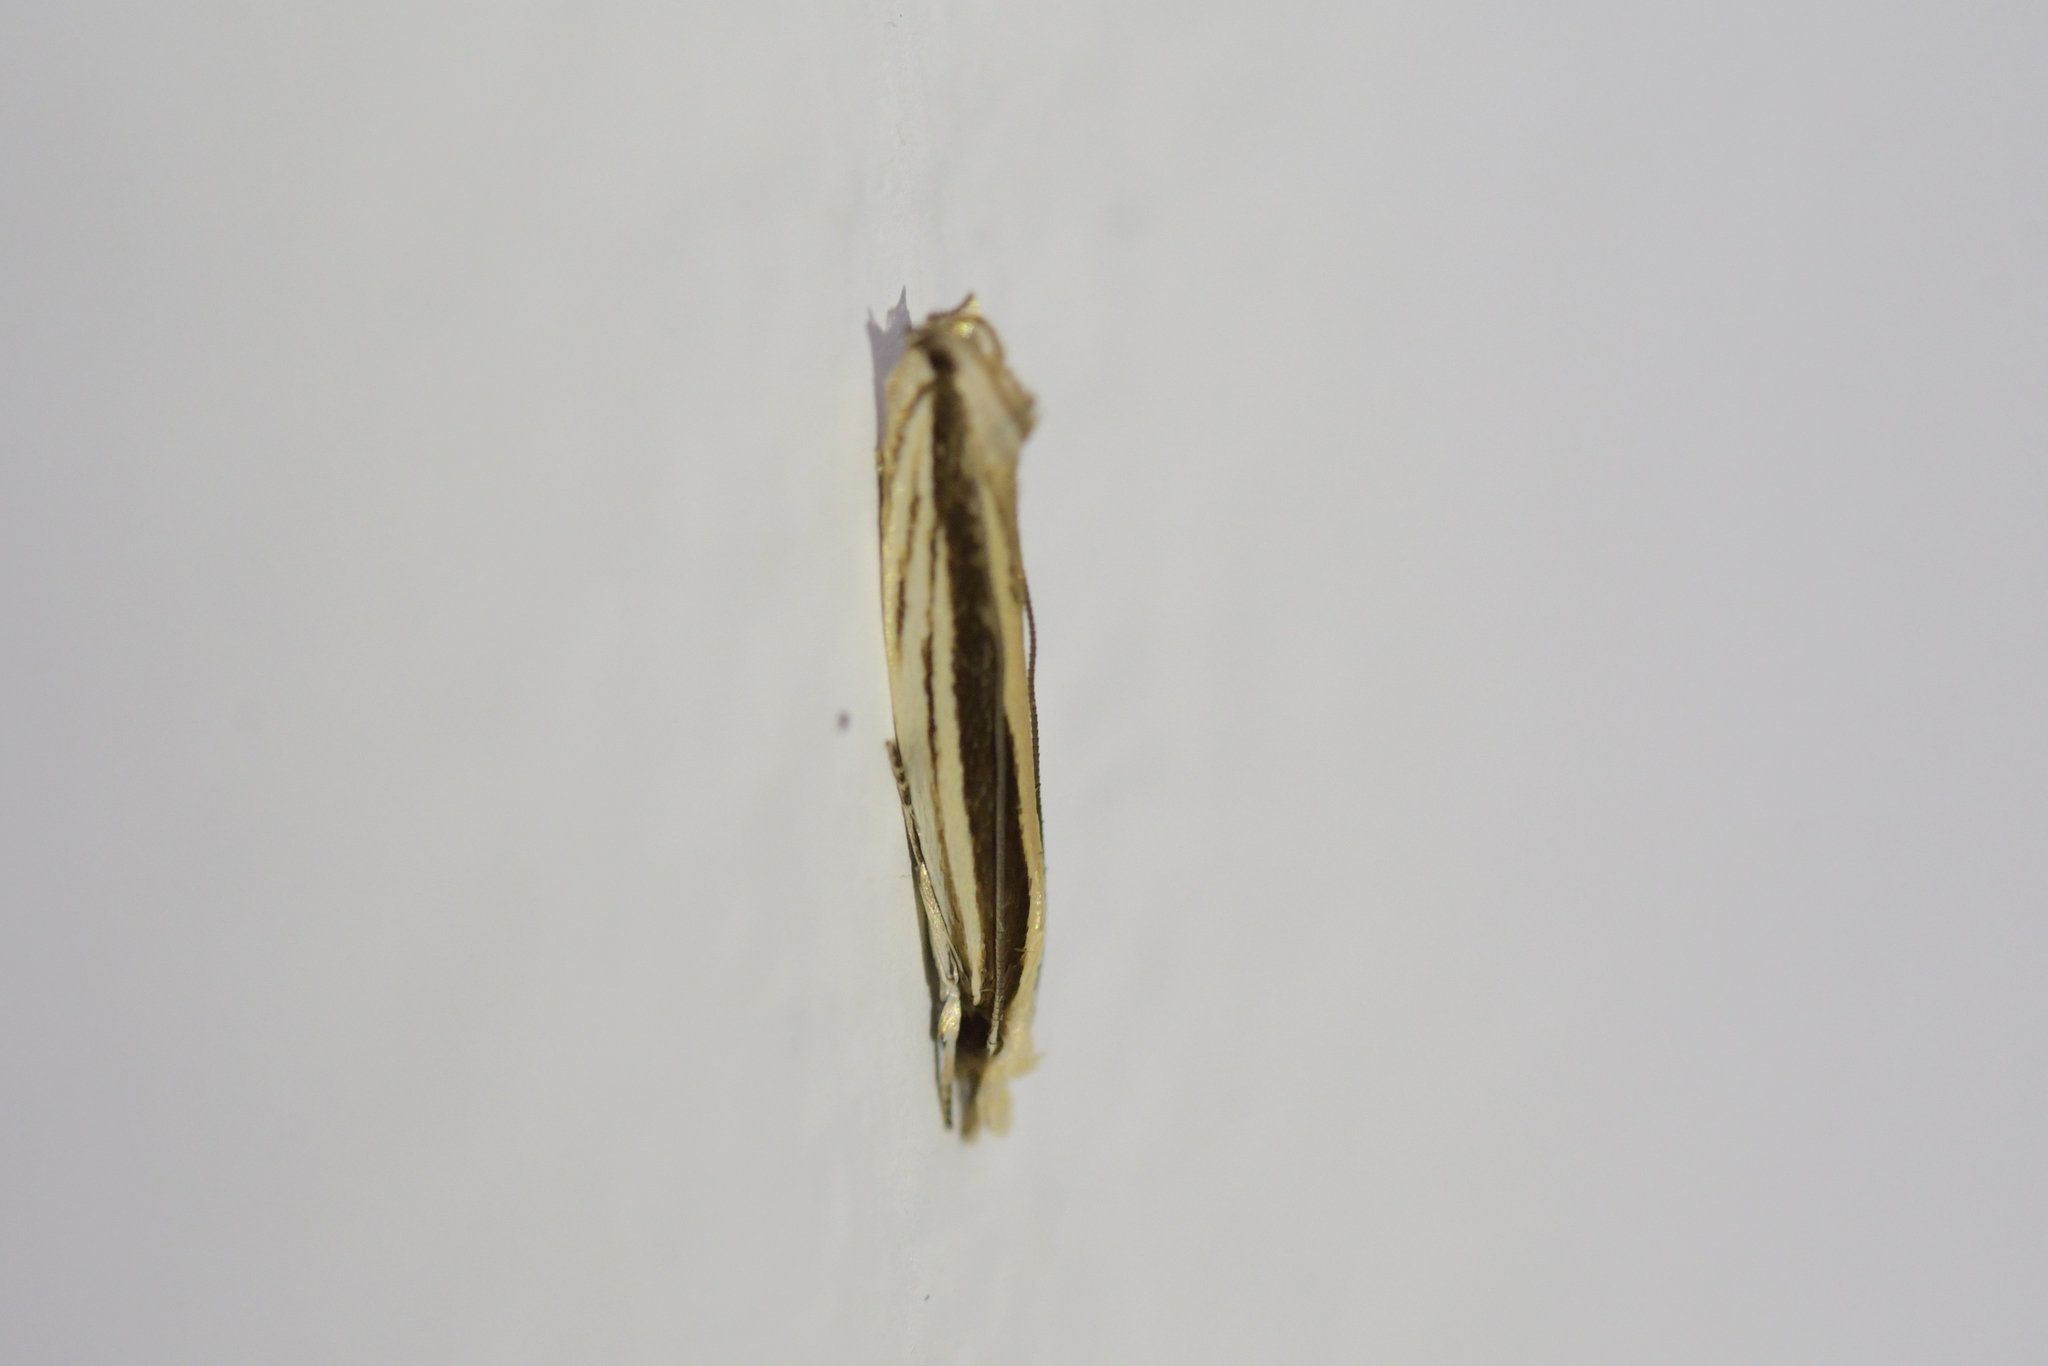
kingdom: Animalia
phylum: Arthropoda
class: Insecta
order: Lepidoptera
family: Tineidae
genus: Erechthias
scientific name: Erechthias stilbella
